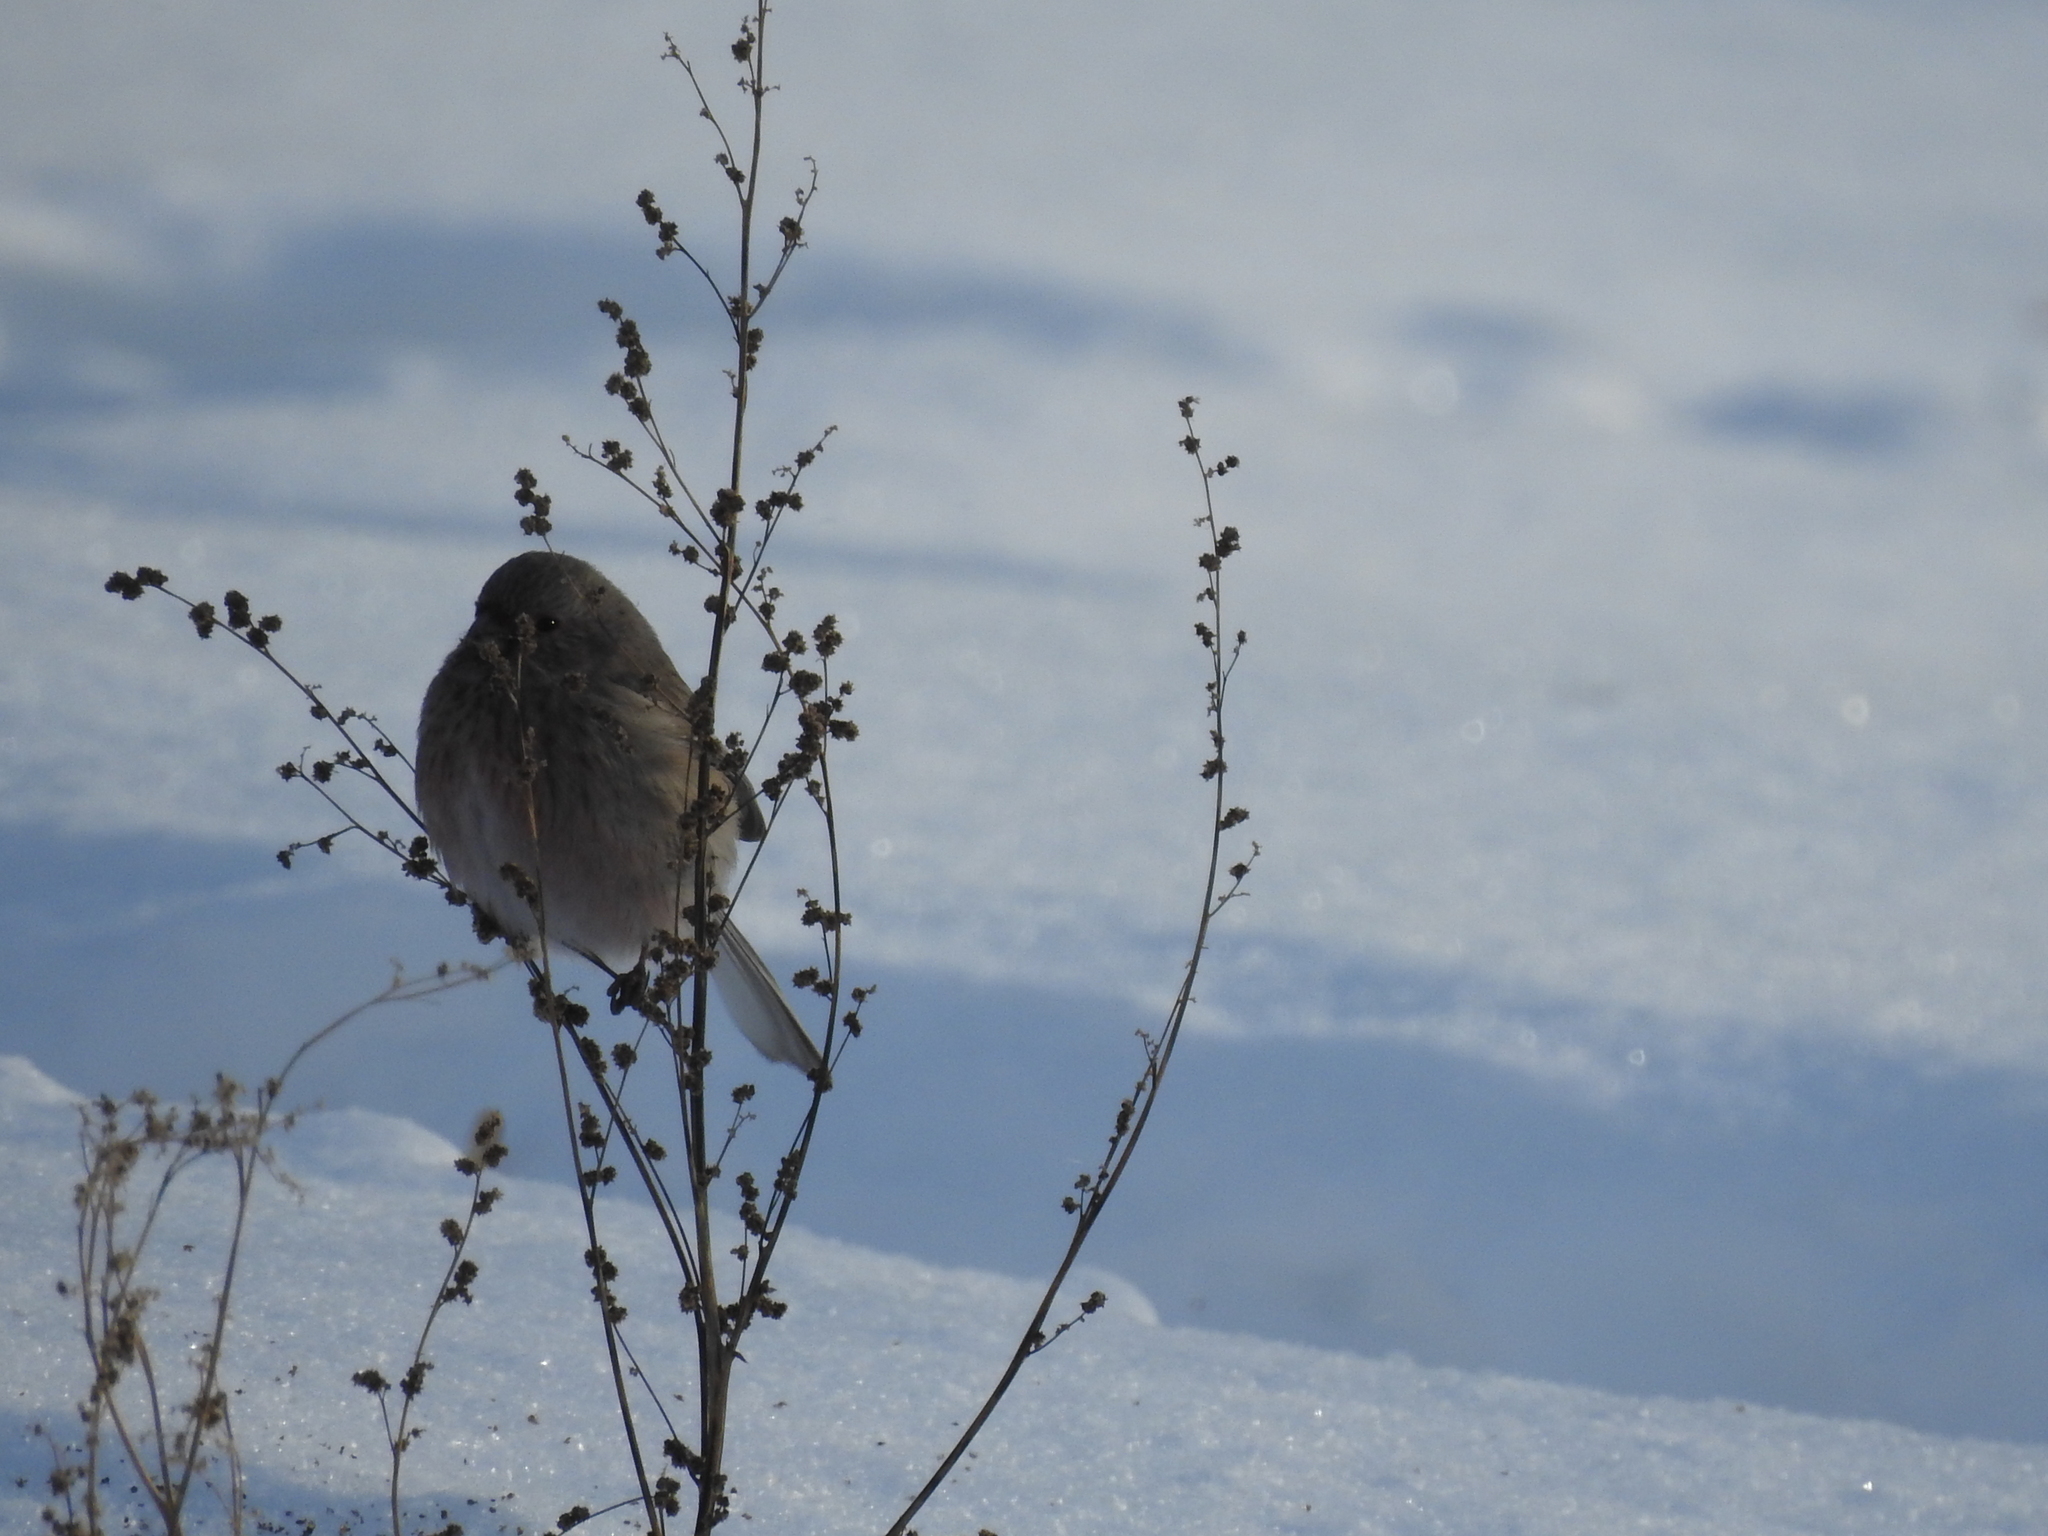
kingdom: Animalia
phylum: Chordata
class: Aves
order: Passeriformes
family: Fringillidae
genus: Carpodacus
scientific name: Carpodacus sibiricus
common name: Long-tailed rosefinch
